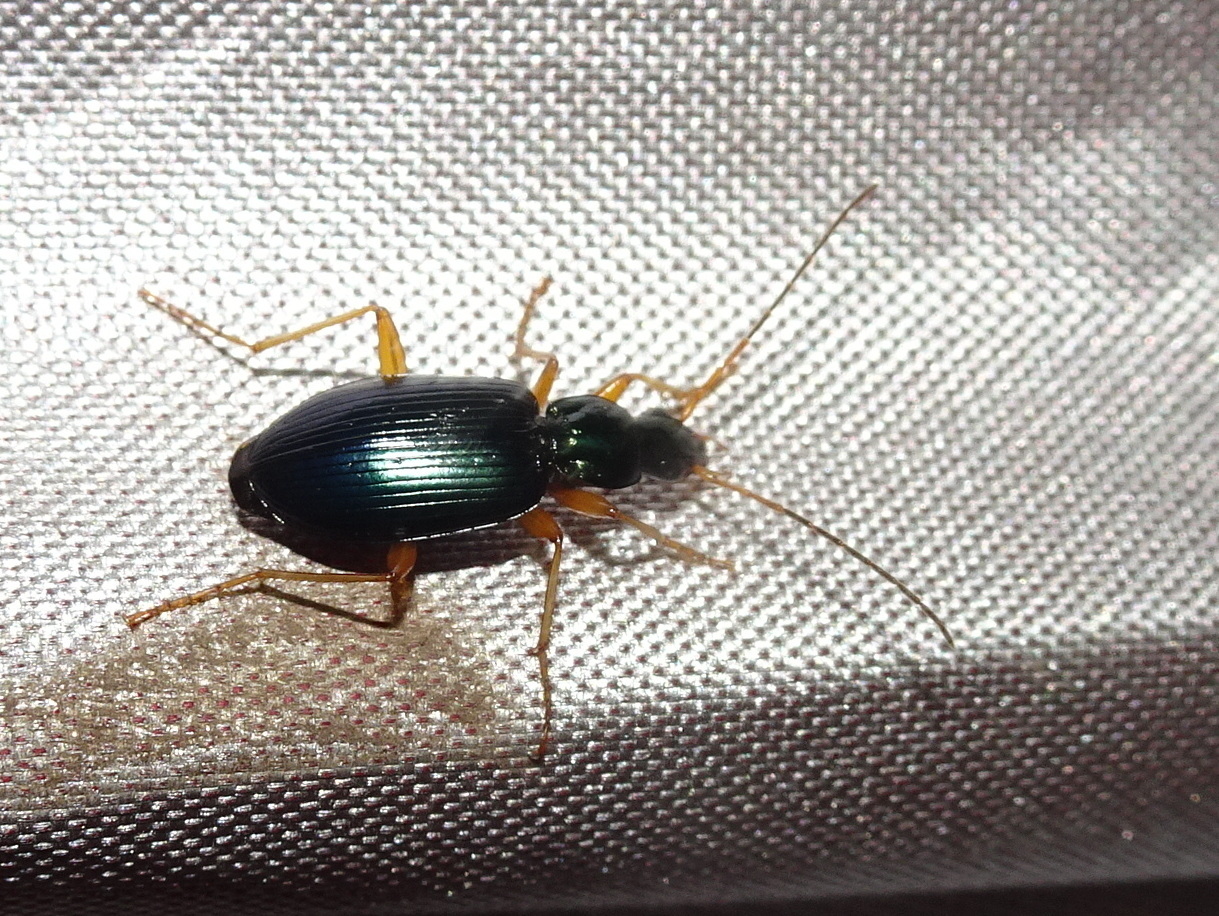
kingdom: Animalia
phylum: Arthropoda
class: Insecta
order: Coleoptera
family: Carabidae
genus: Agonum
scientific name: Agonum extensicolle
